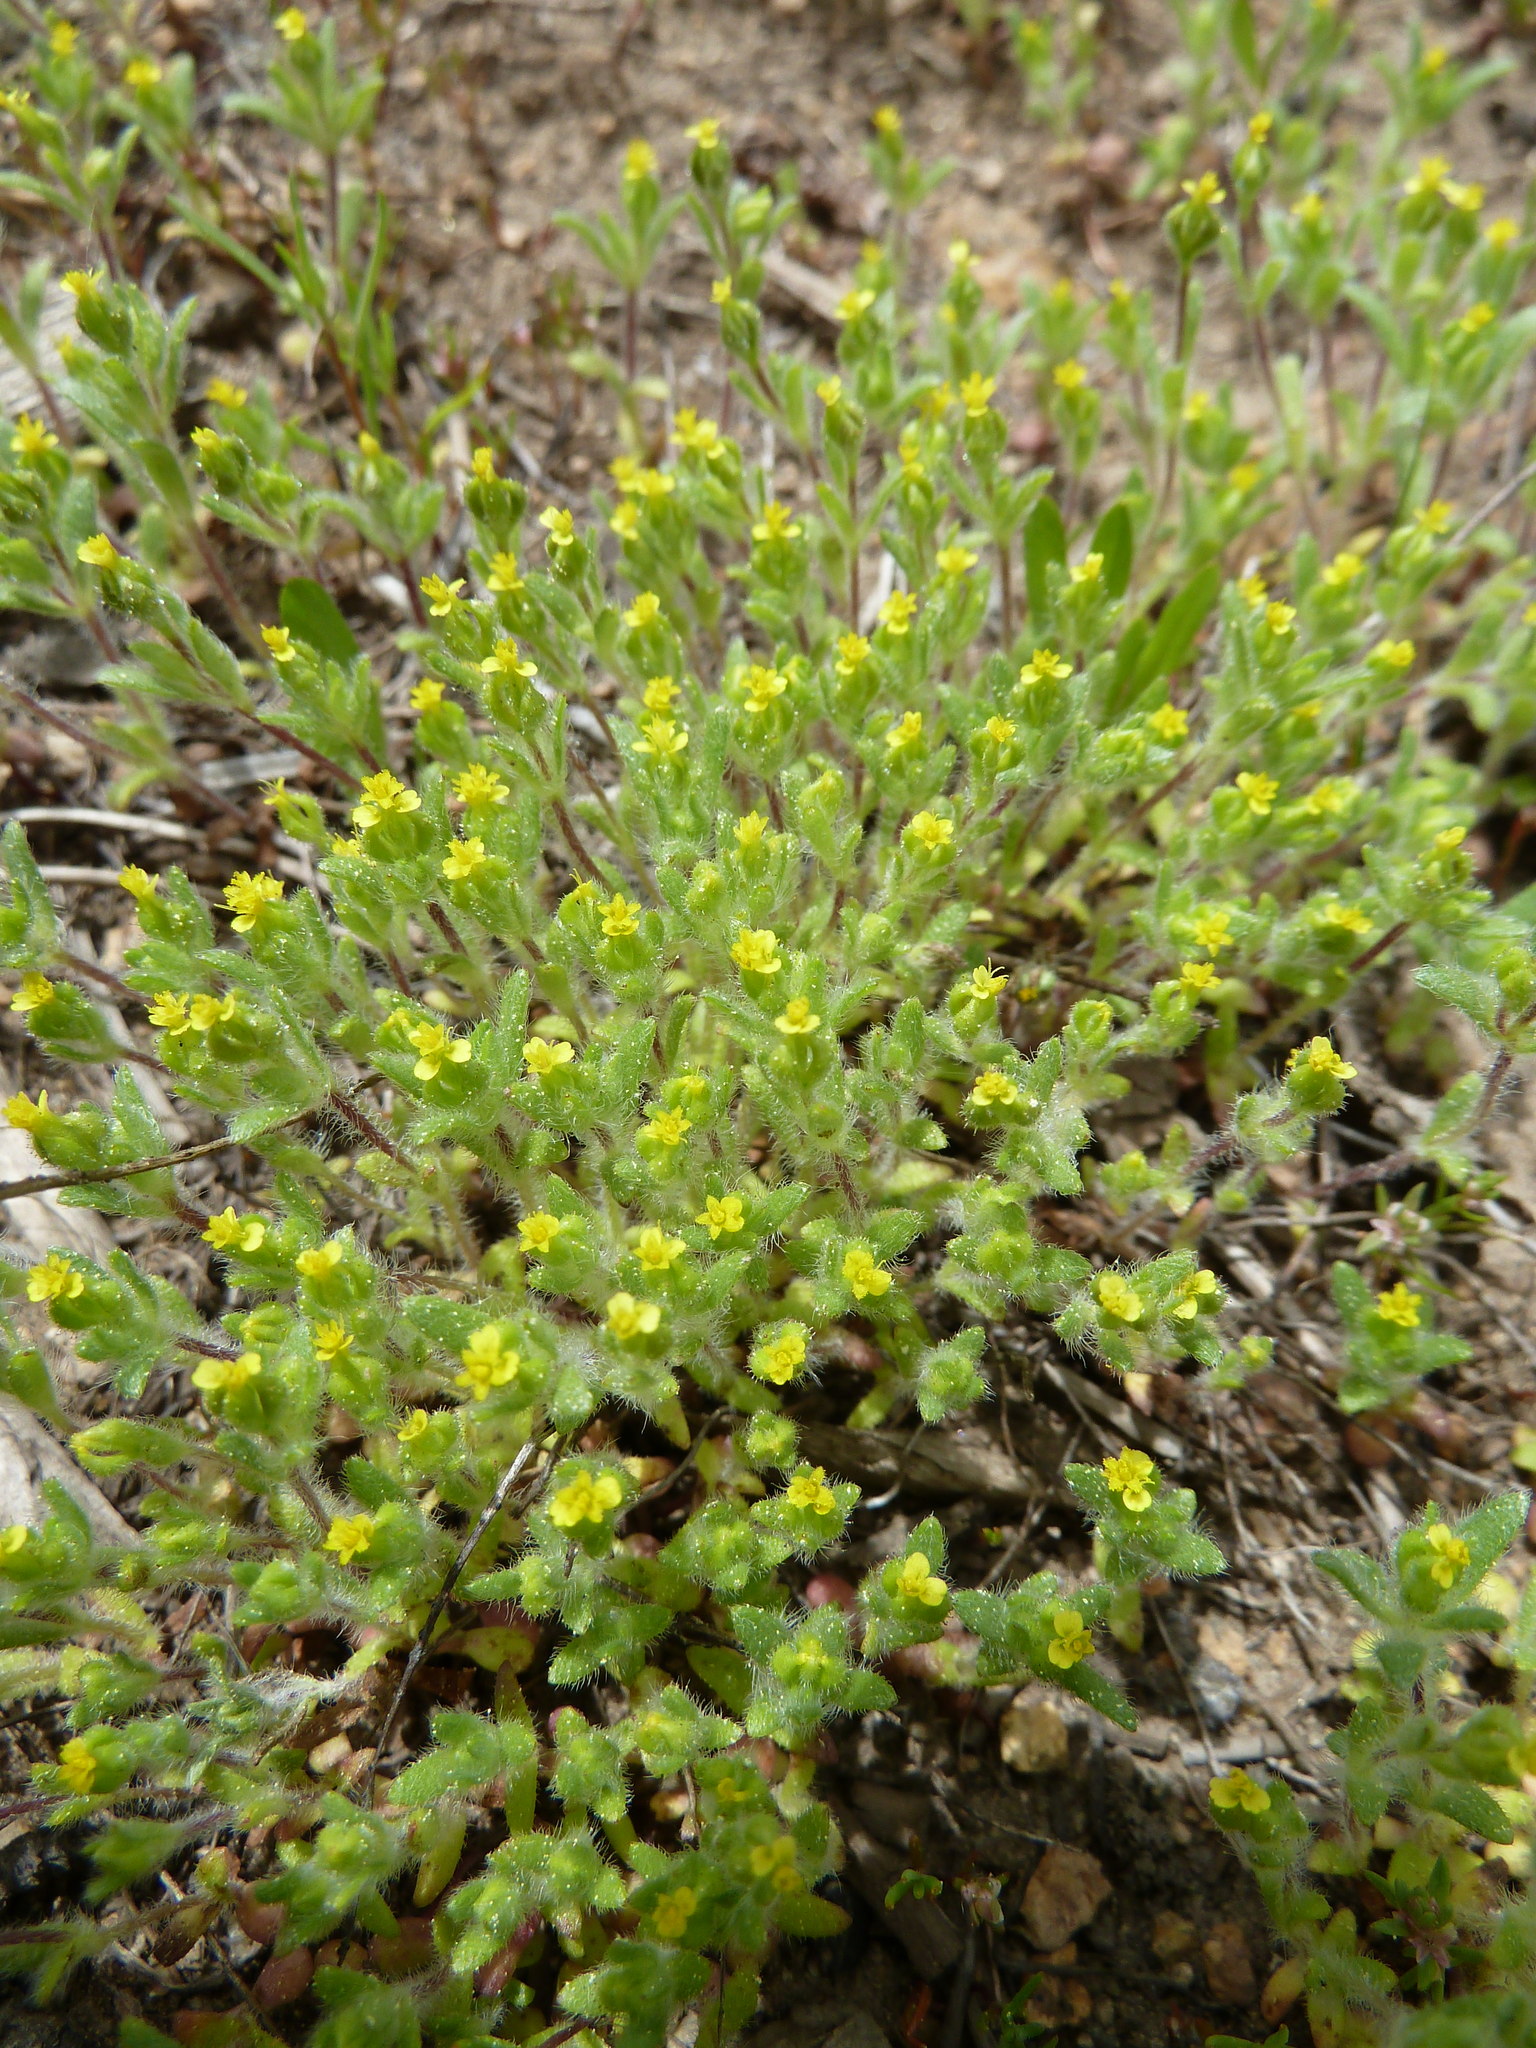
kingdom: Plantae
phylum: Tracheophyta
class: Magnoliopsida
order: Asterales
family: Asteraceae
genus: Hemizonella
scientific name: Hemizonella minima
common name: Opposite-leaved tarweed
